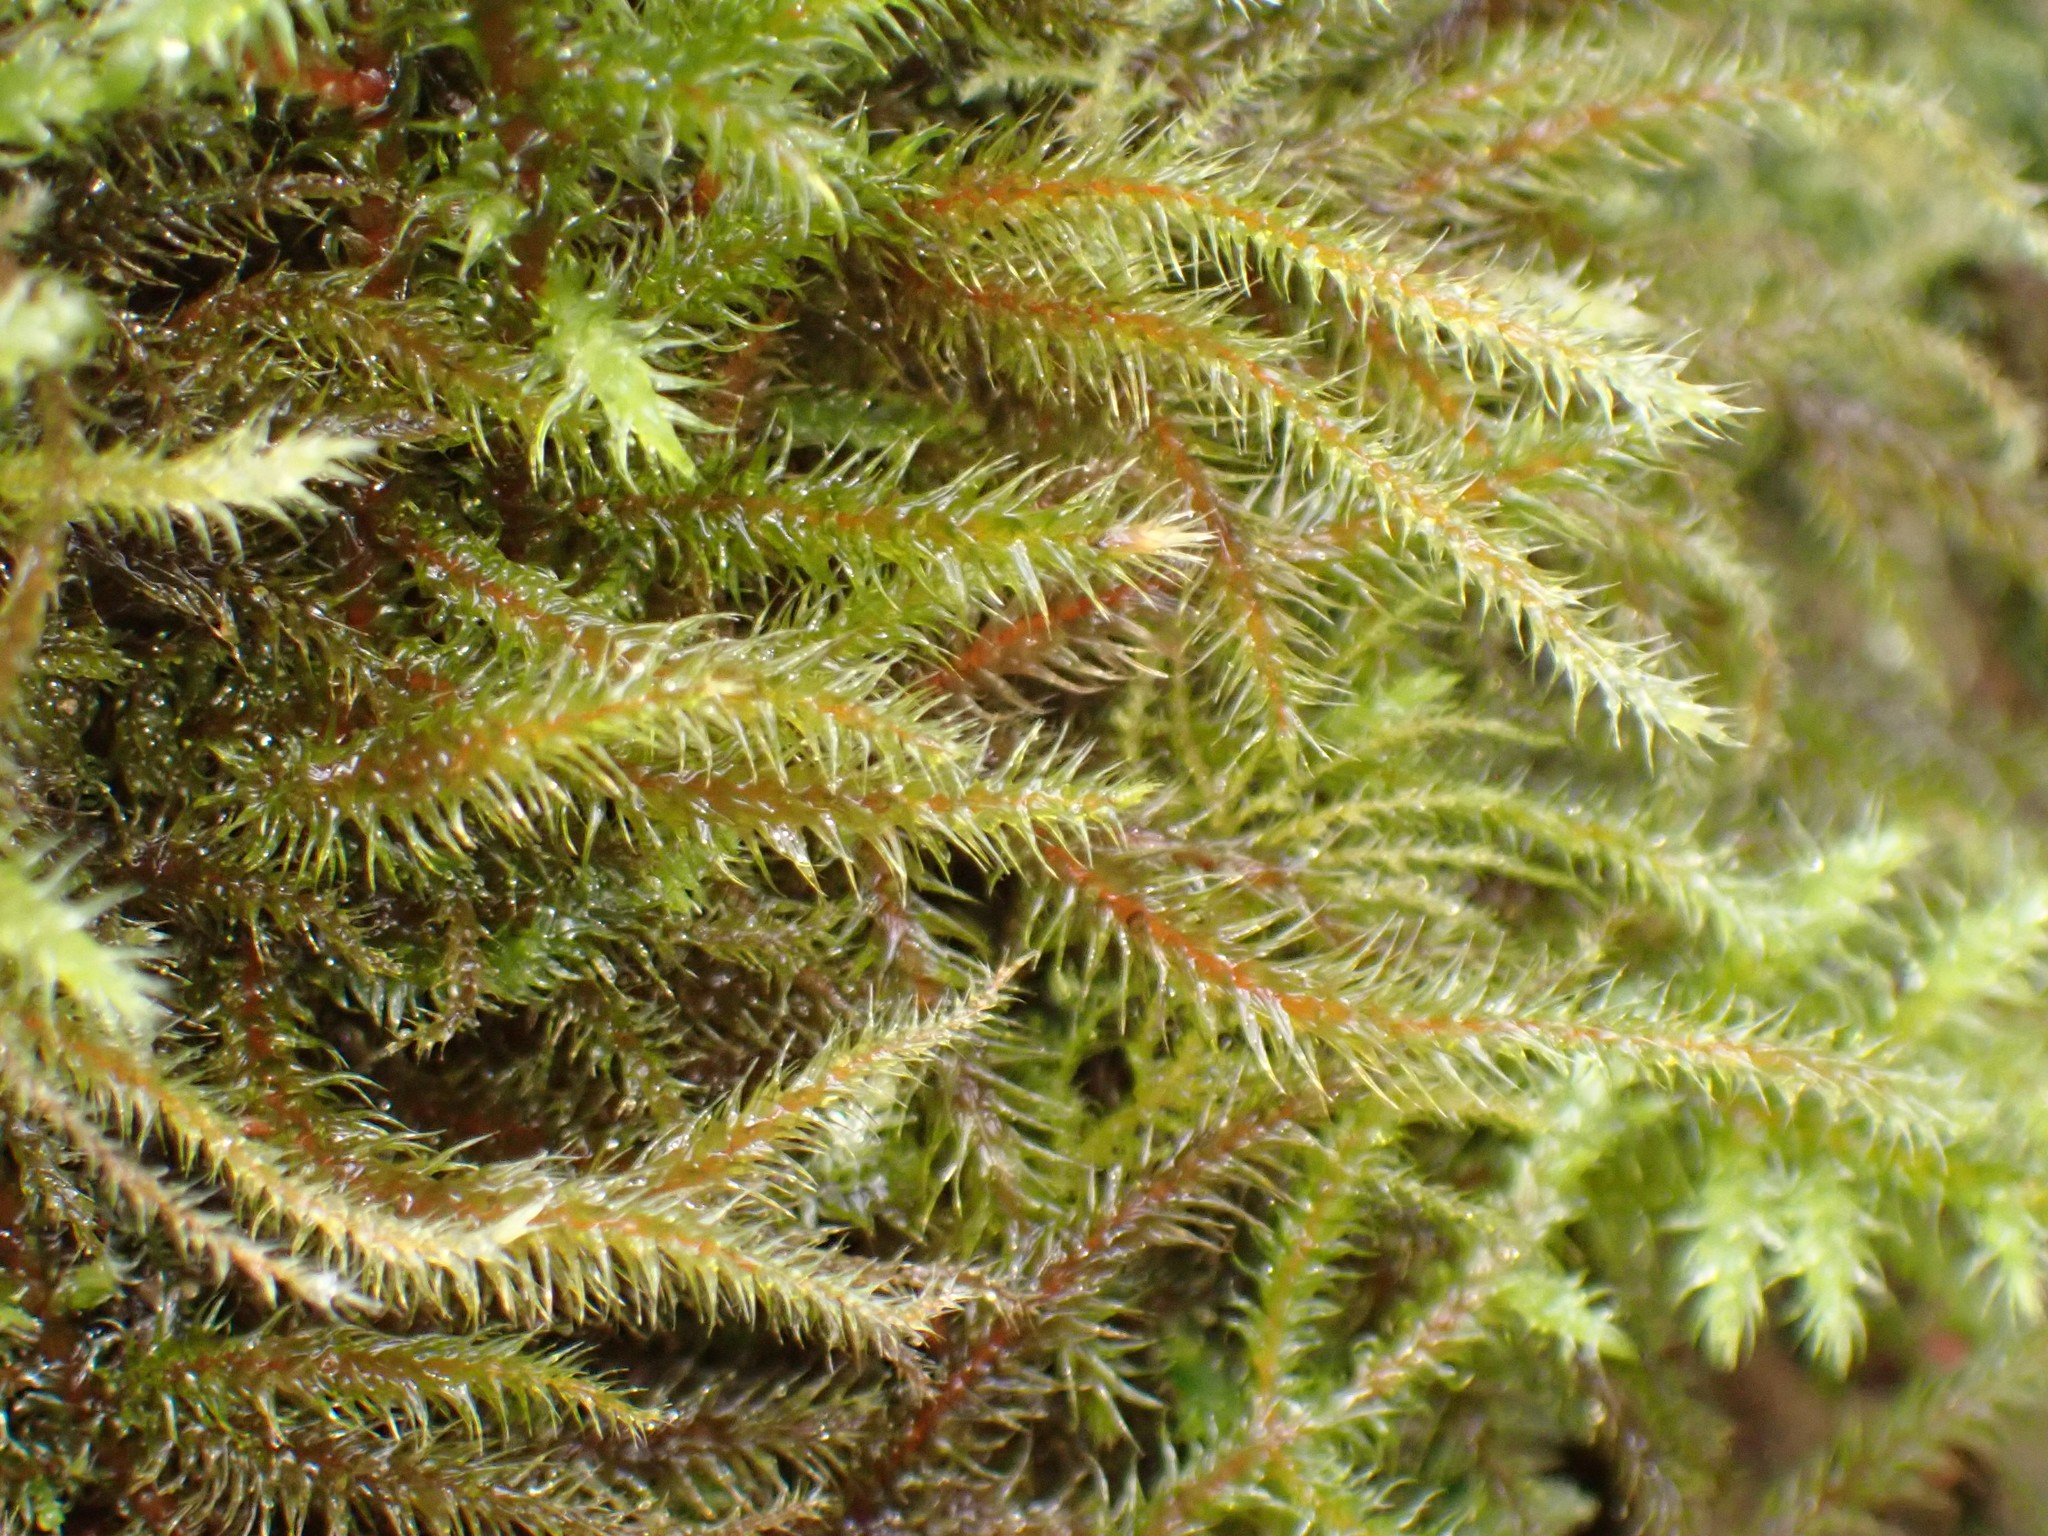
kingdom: Plantae
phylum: Bryophyta
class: Bryopsida
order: Hypnales
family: Hylocomiaceae
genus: Rhytidiadelphus
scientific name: Rhytidiadelphus loreus
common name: Lanky moss
